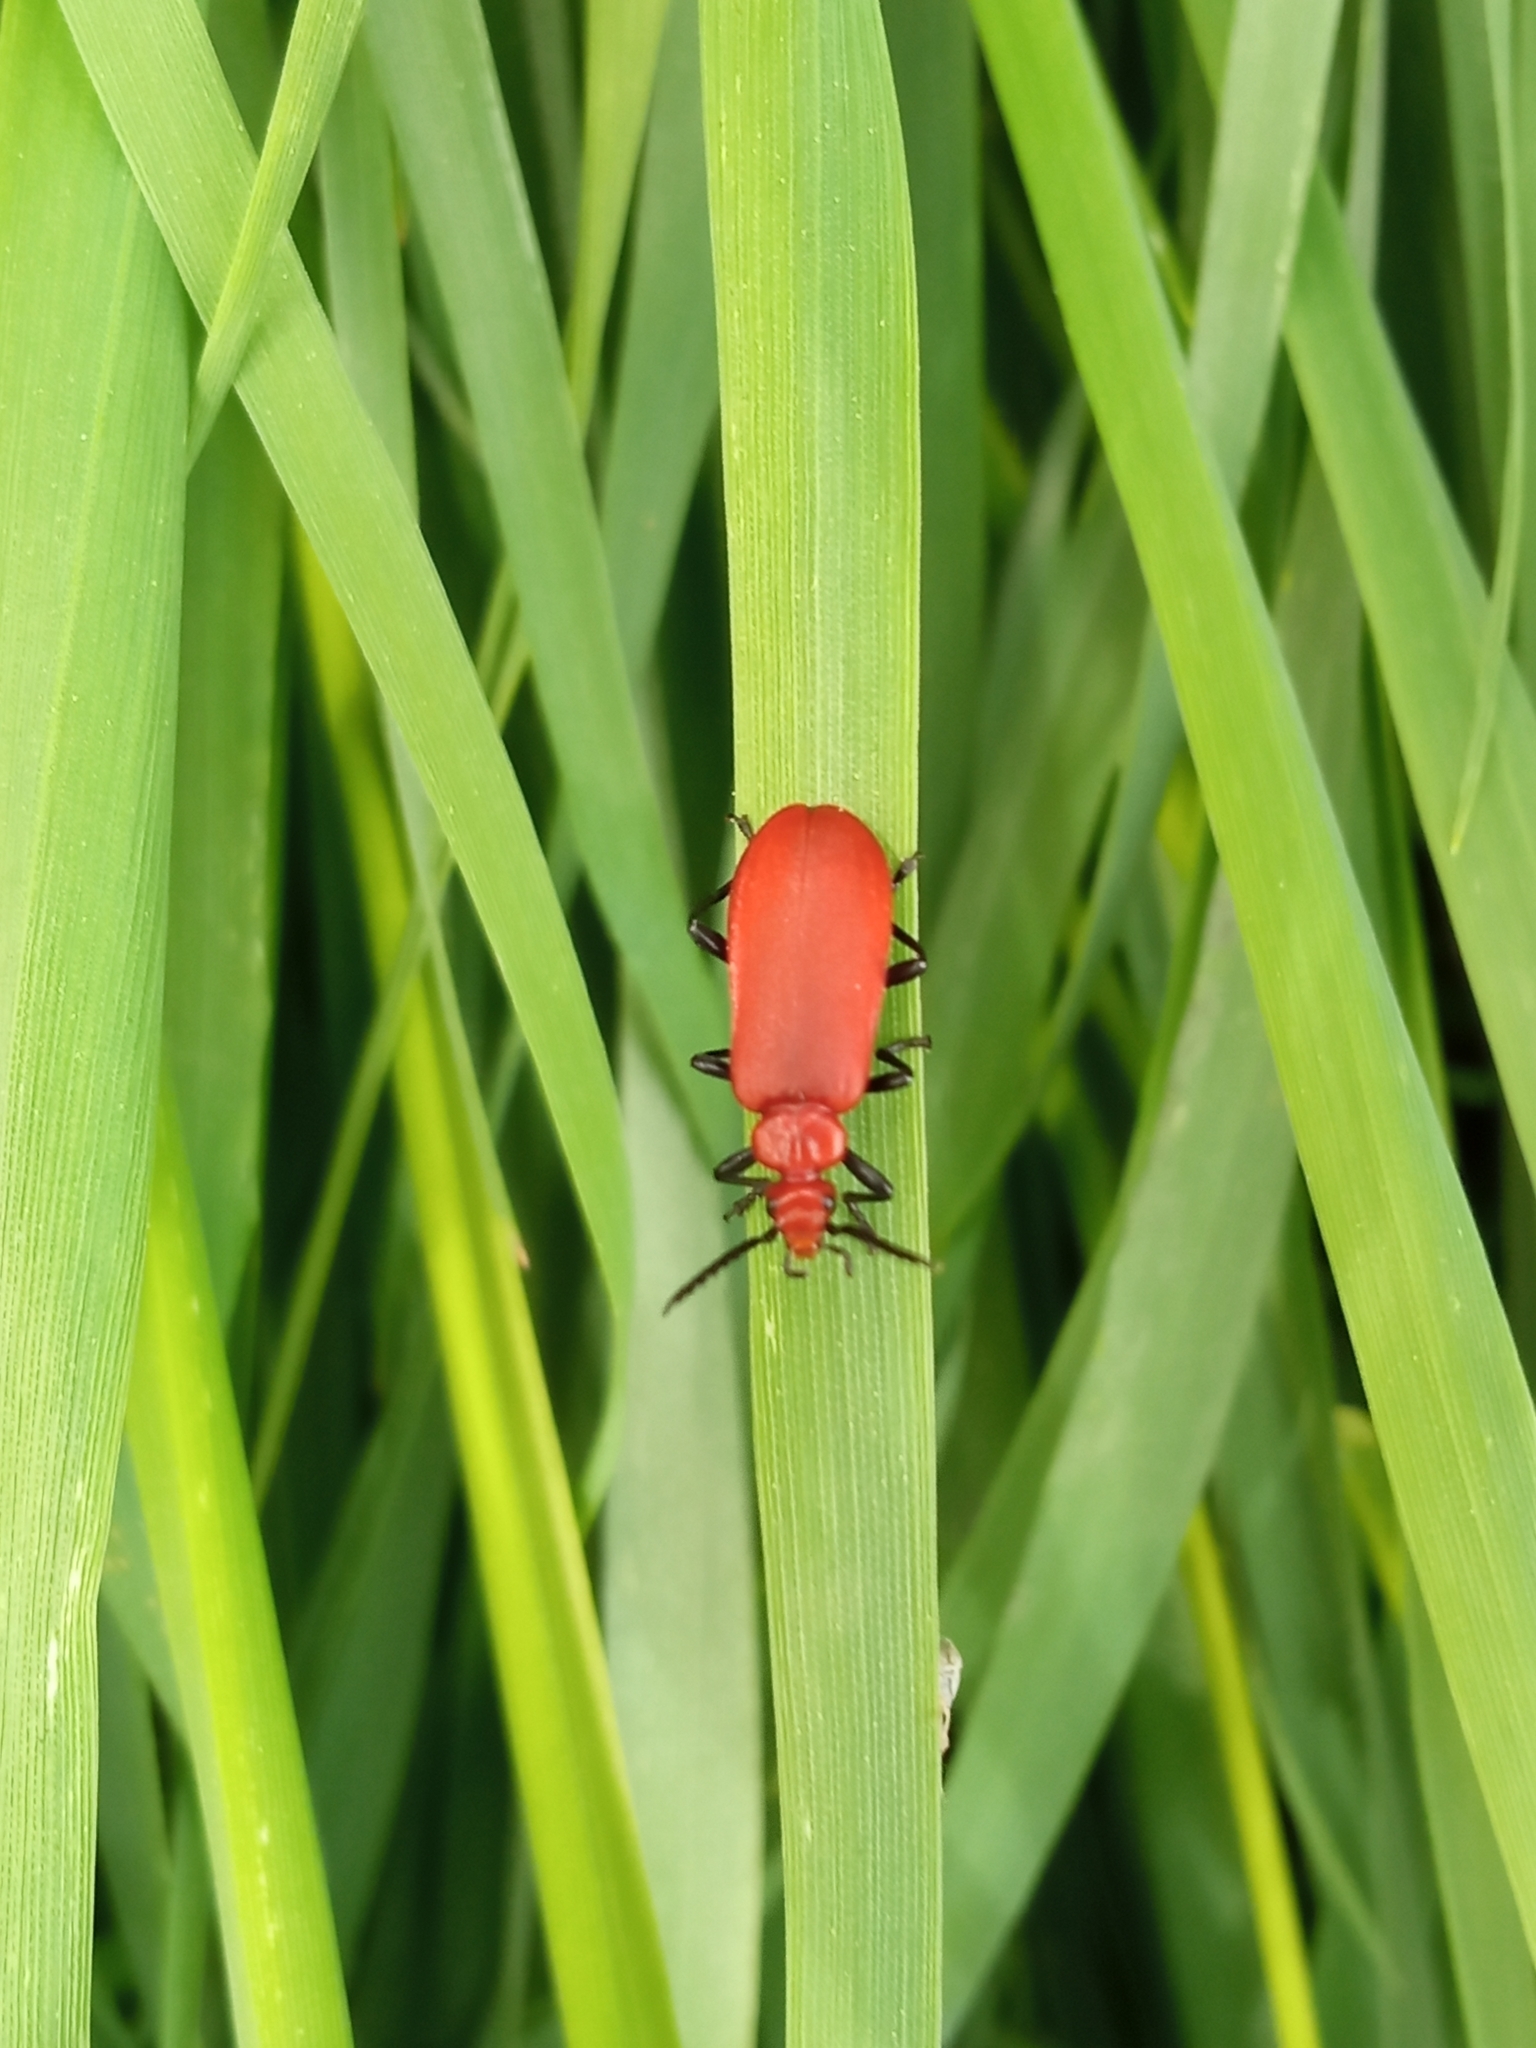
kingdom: Animalia
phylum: Arthropoda
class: Insecta
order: Coleoptera
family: Pyrochroidae
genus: Pyrochroa
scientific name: Pyrochroa serraticornis
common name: Red-headed cardinal beetle
